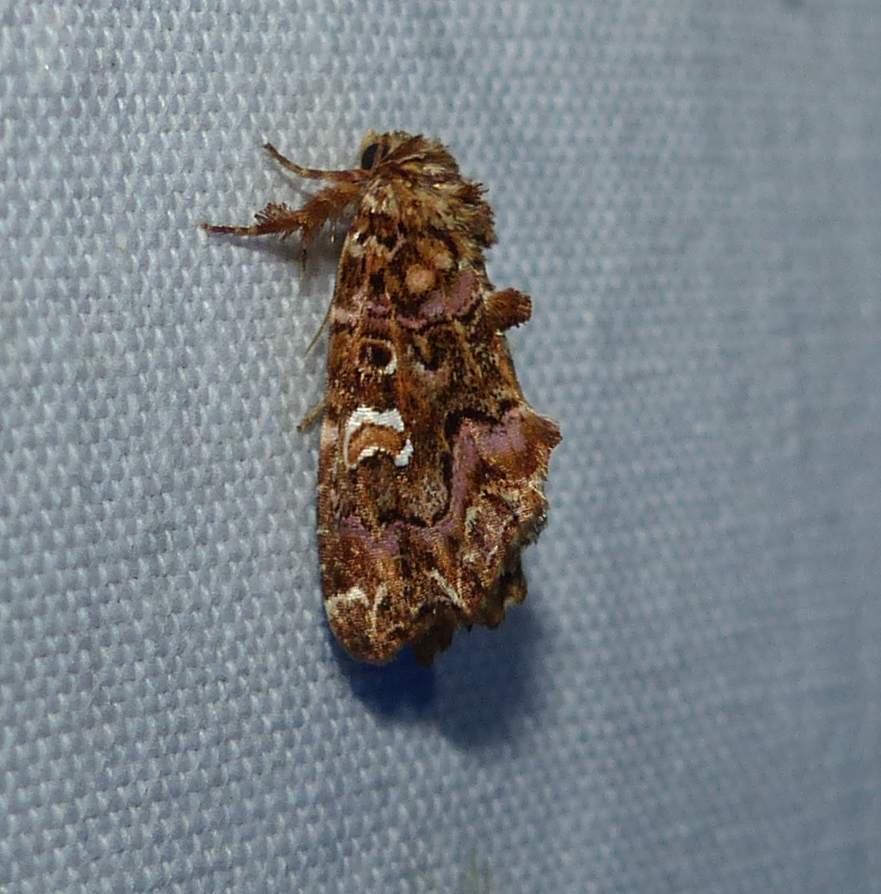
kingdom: Animalia
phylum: Arthropoda
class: Insecta
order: Lepidoptera
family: Noctuidae
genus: Callopistria
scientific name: Callopistria mollissima
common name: Pink-shaded fern moth
